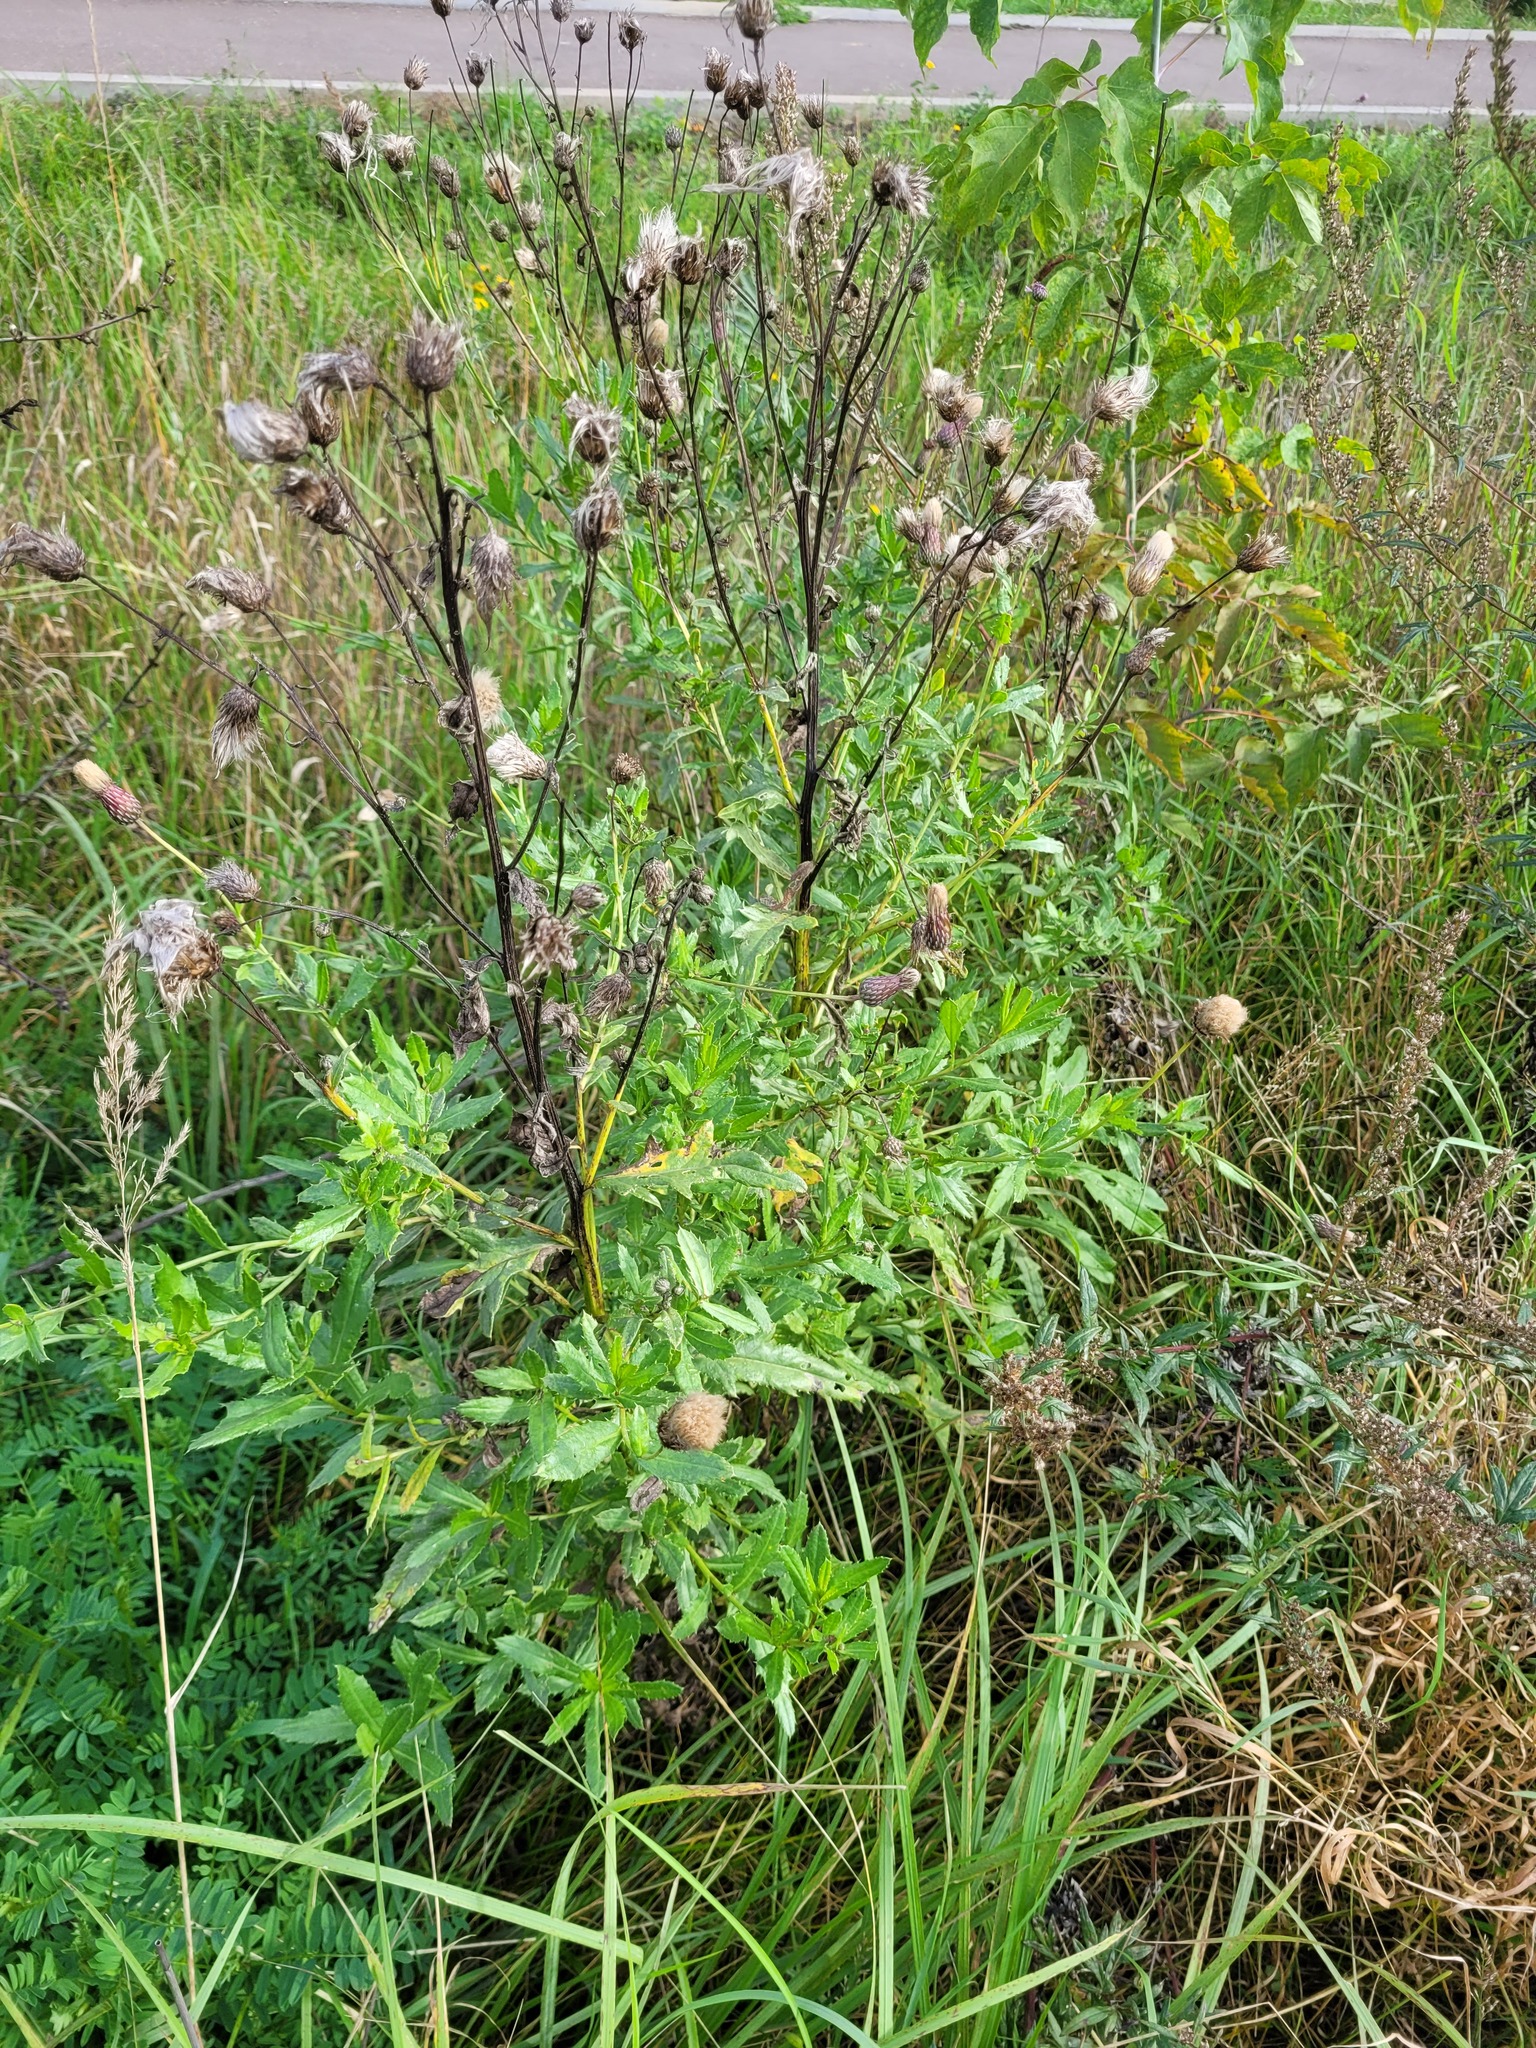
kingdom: Plantae
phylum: Tracheophyta
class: Magnoliopsida
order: Asterales
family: Asteraceae
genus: Cirsium
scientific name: Cirsium arvense
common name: Creeping thistle
